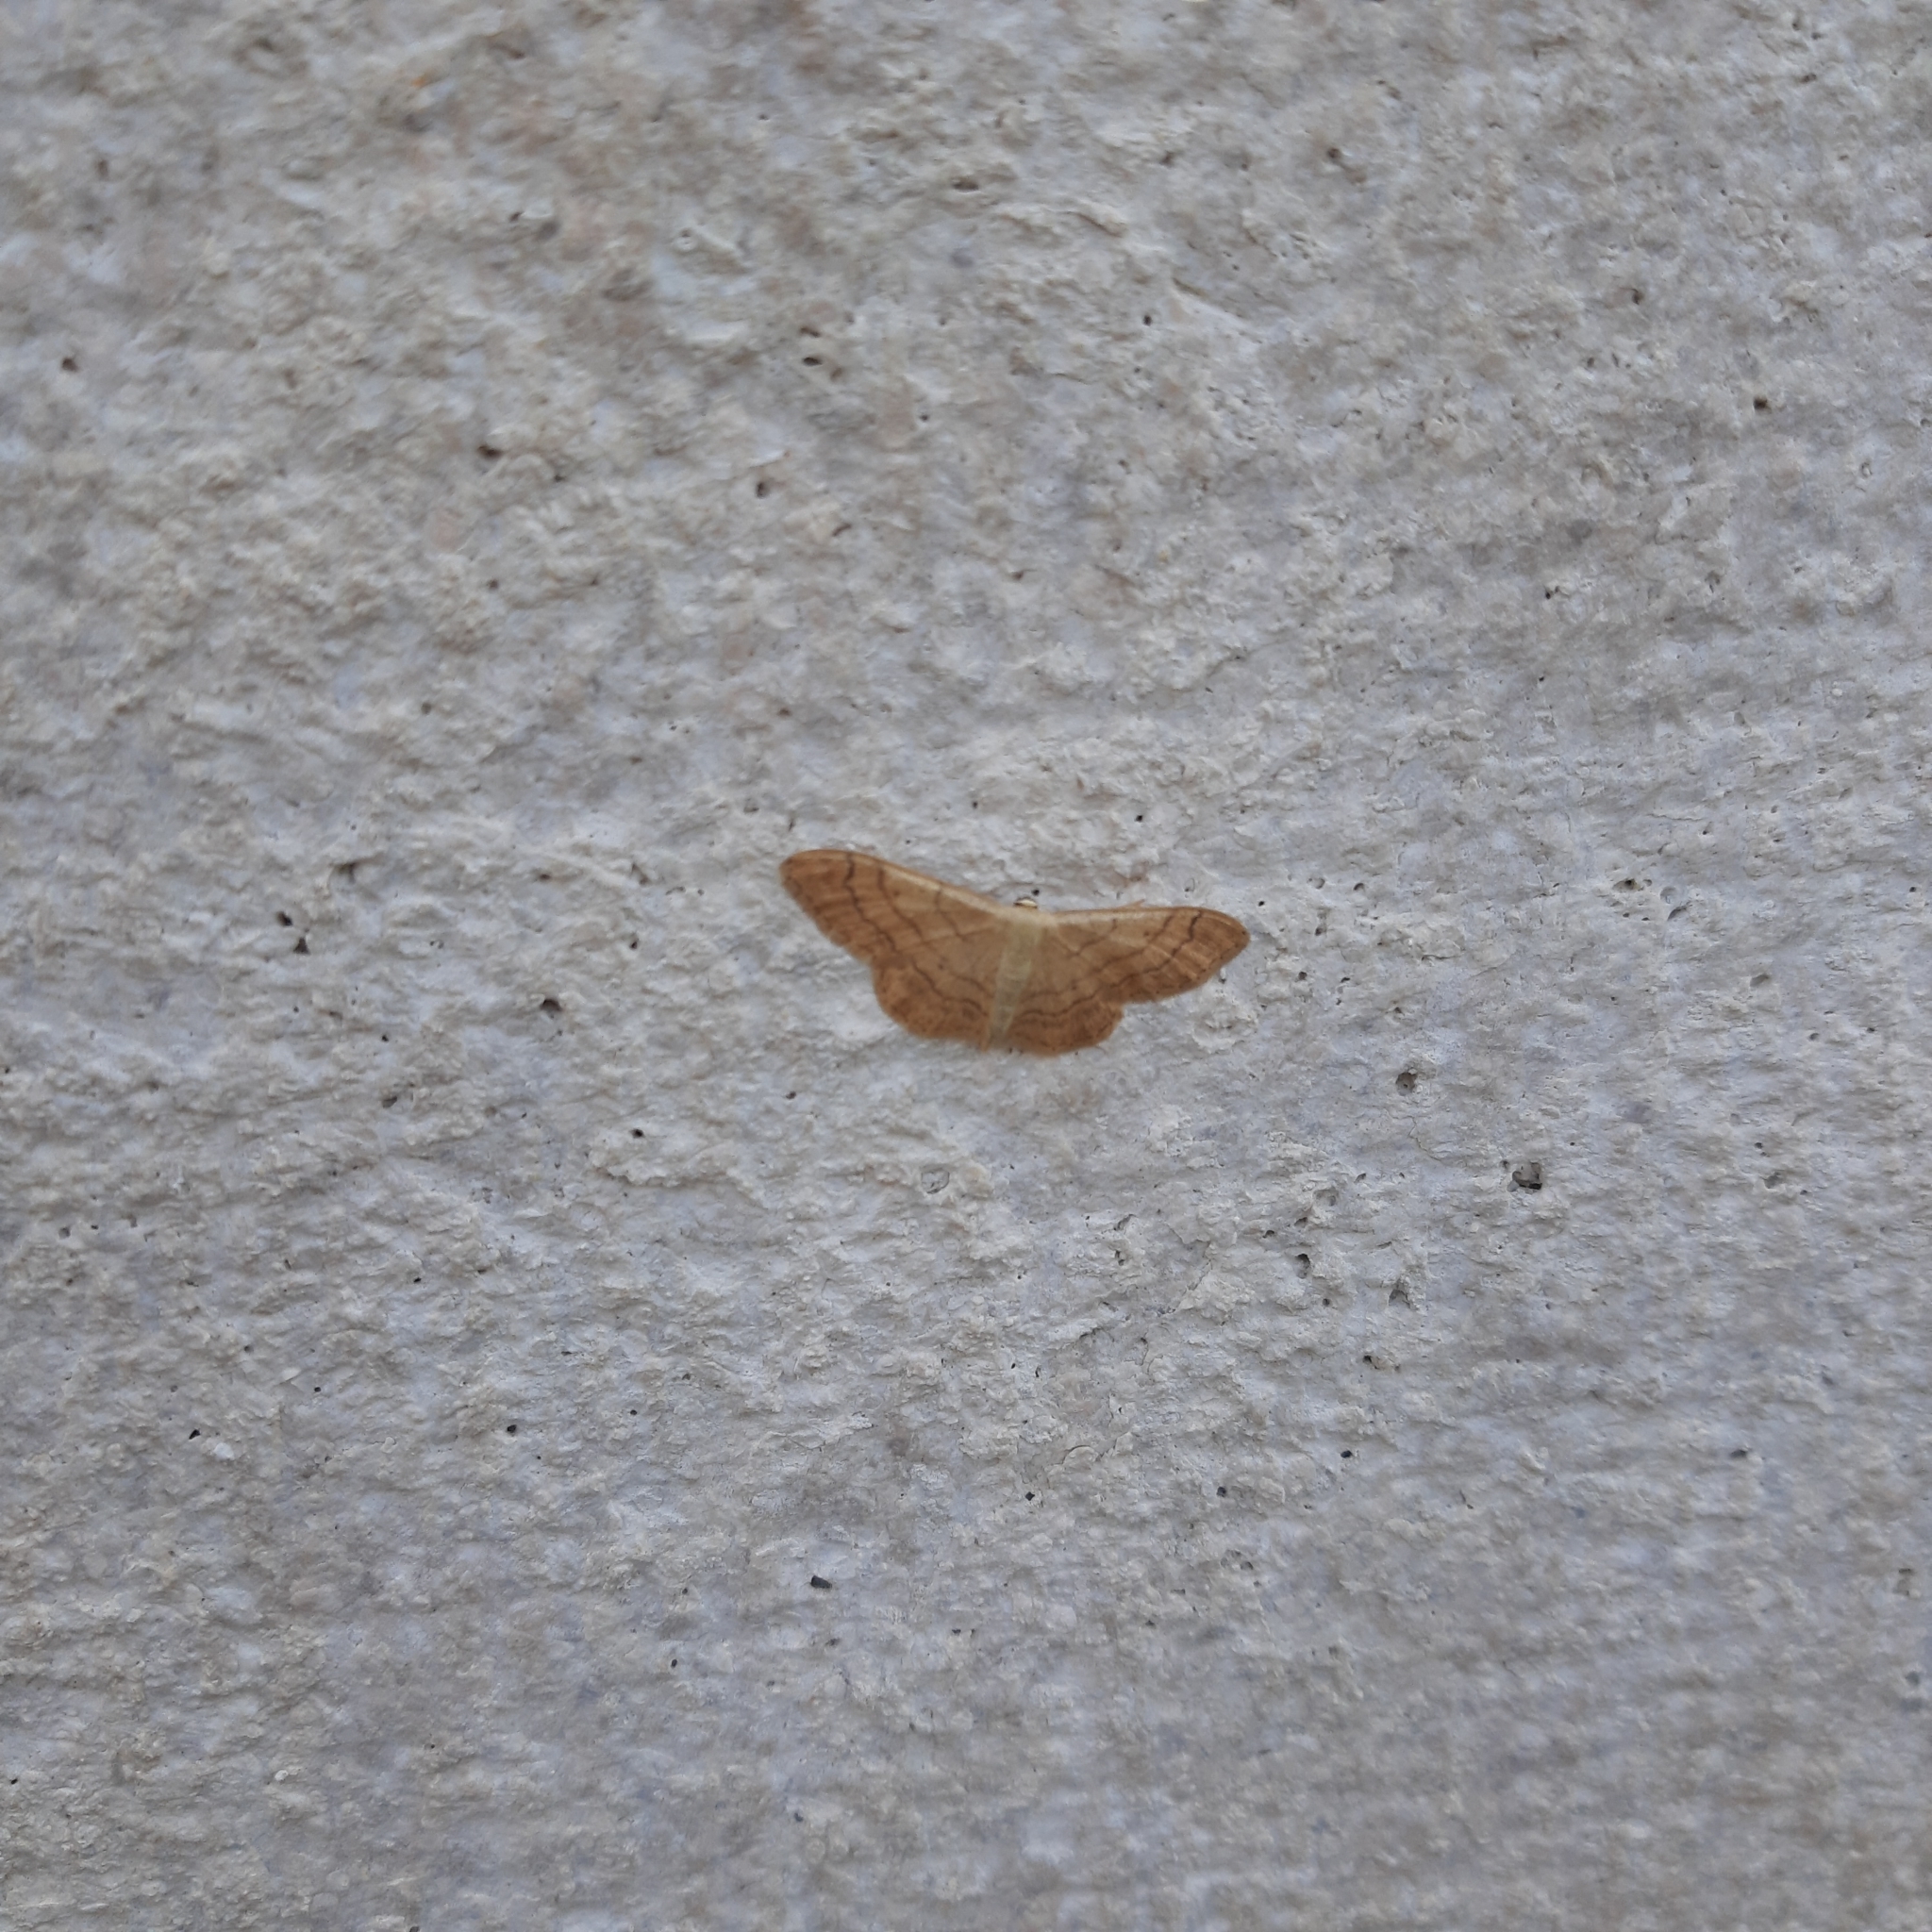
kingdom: Animalia
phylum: Arthropoda
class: Insecta
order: Lepidoptera
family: Geometridae
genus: Idaea
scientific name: Idaea aversata
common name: Riband wave
